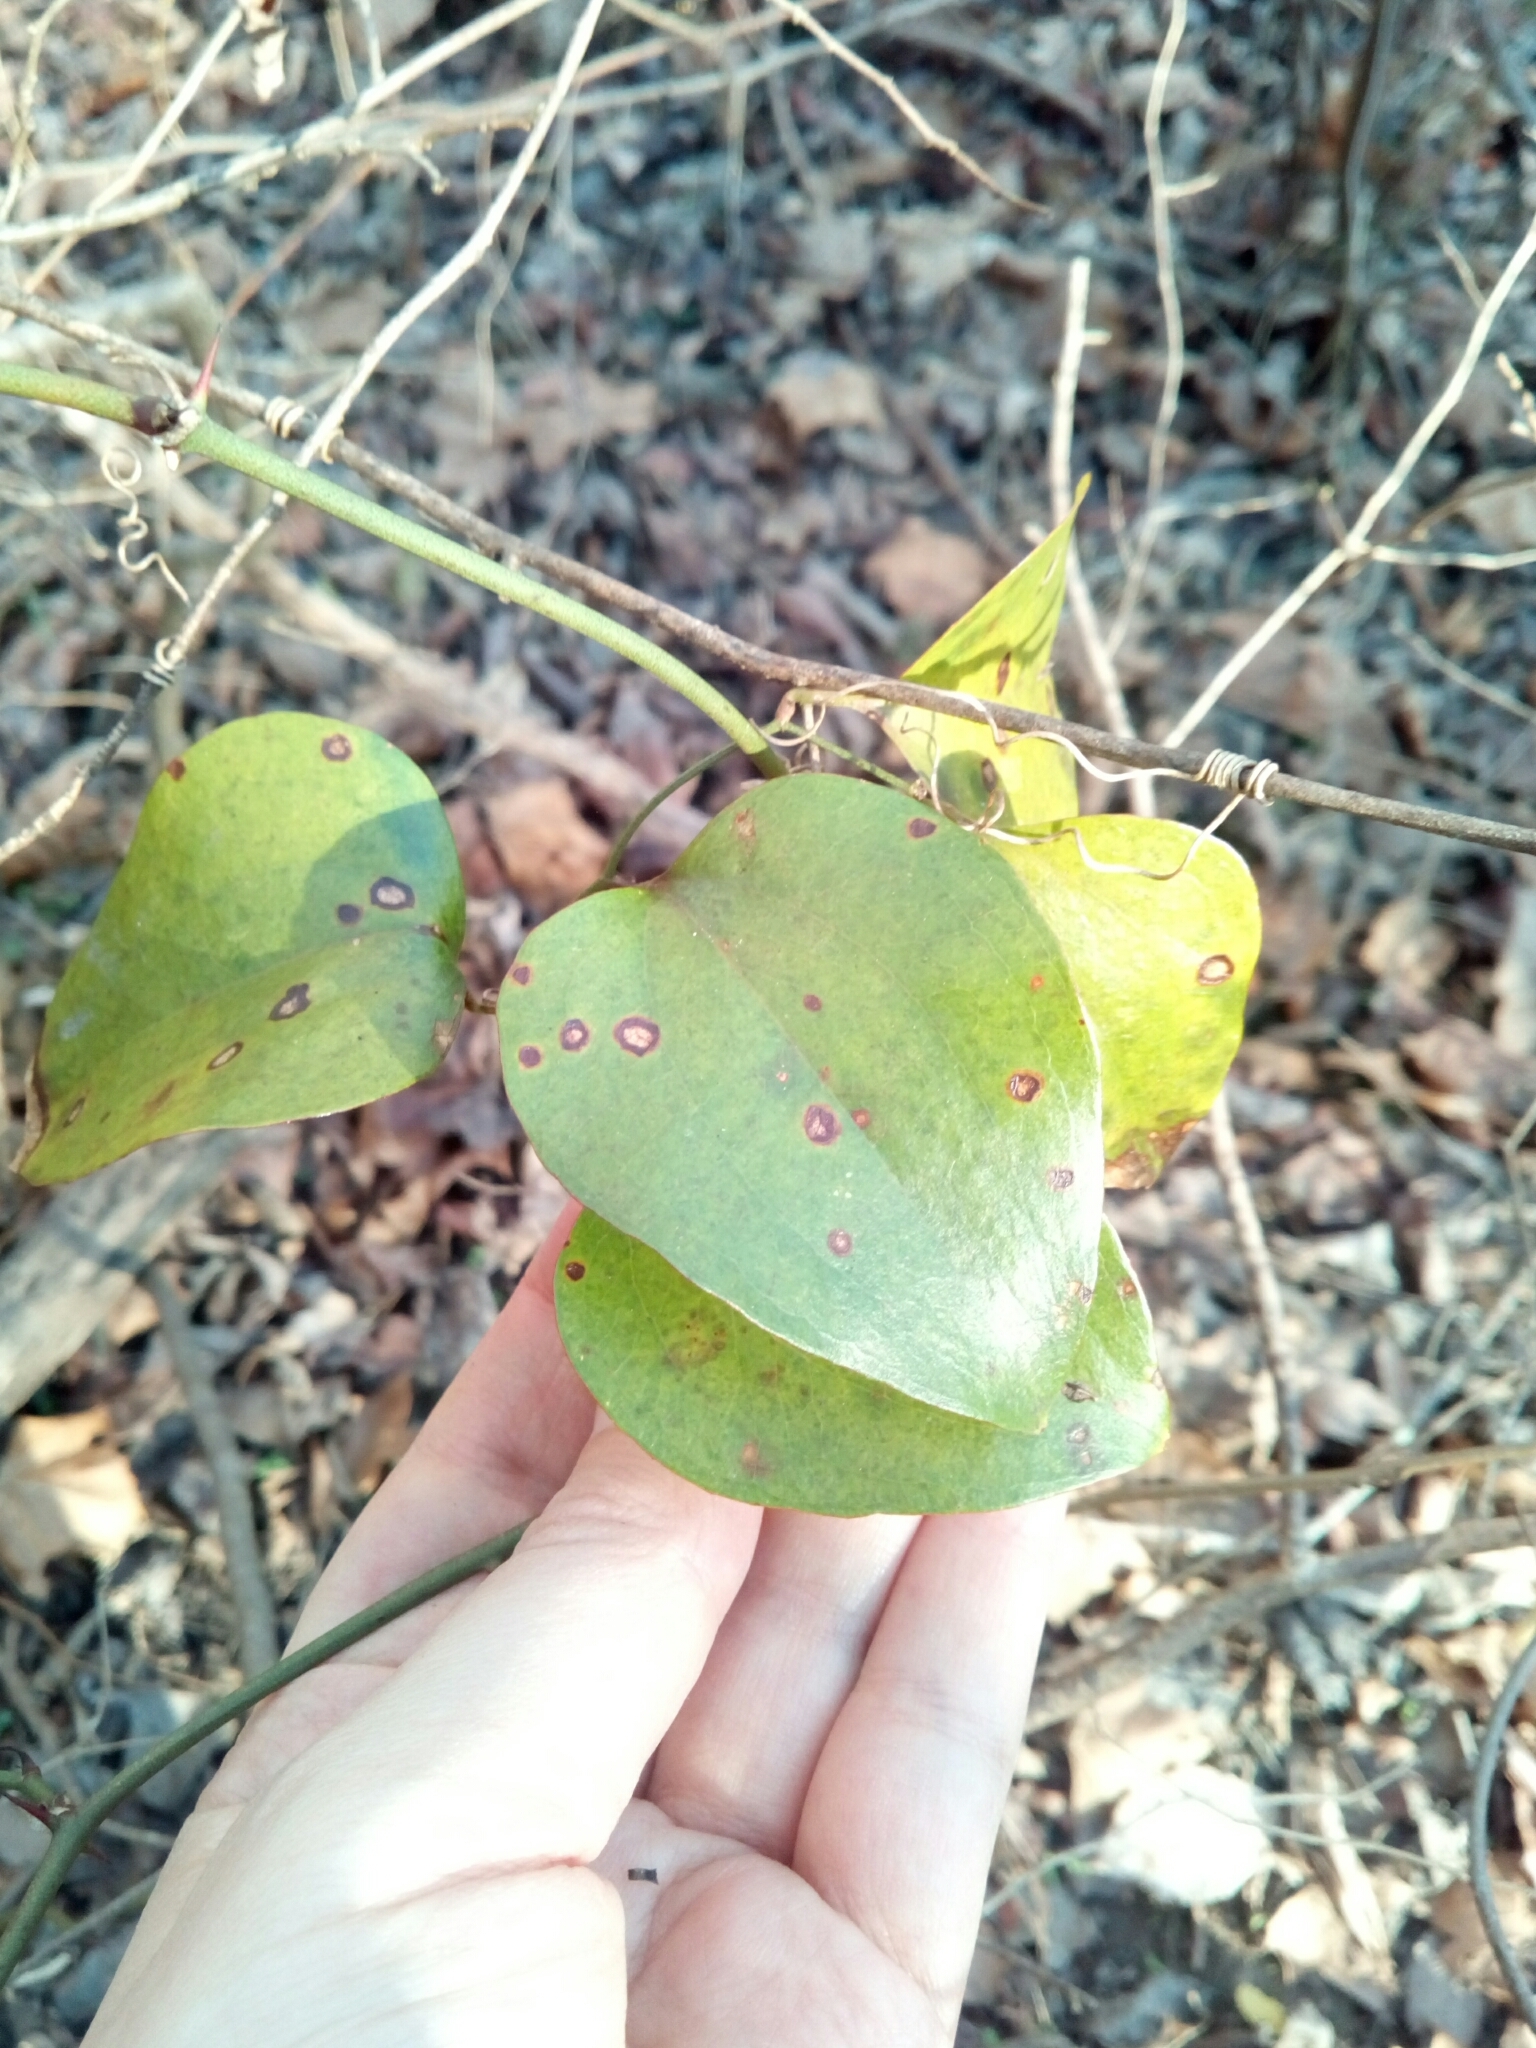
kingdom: Plantae
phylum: Tracheophyta
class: Liliopsida
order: Liliales
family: Smilacaceae
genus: Smilax
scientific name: Smilax rotundifolia
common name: Bullbriar
